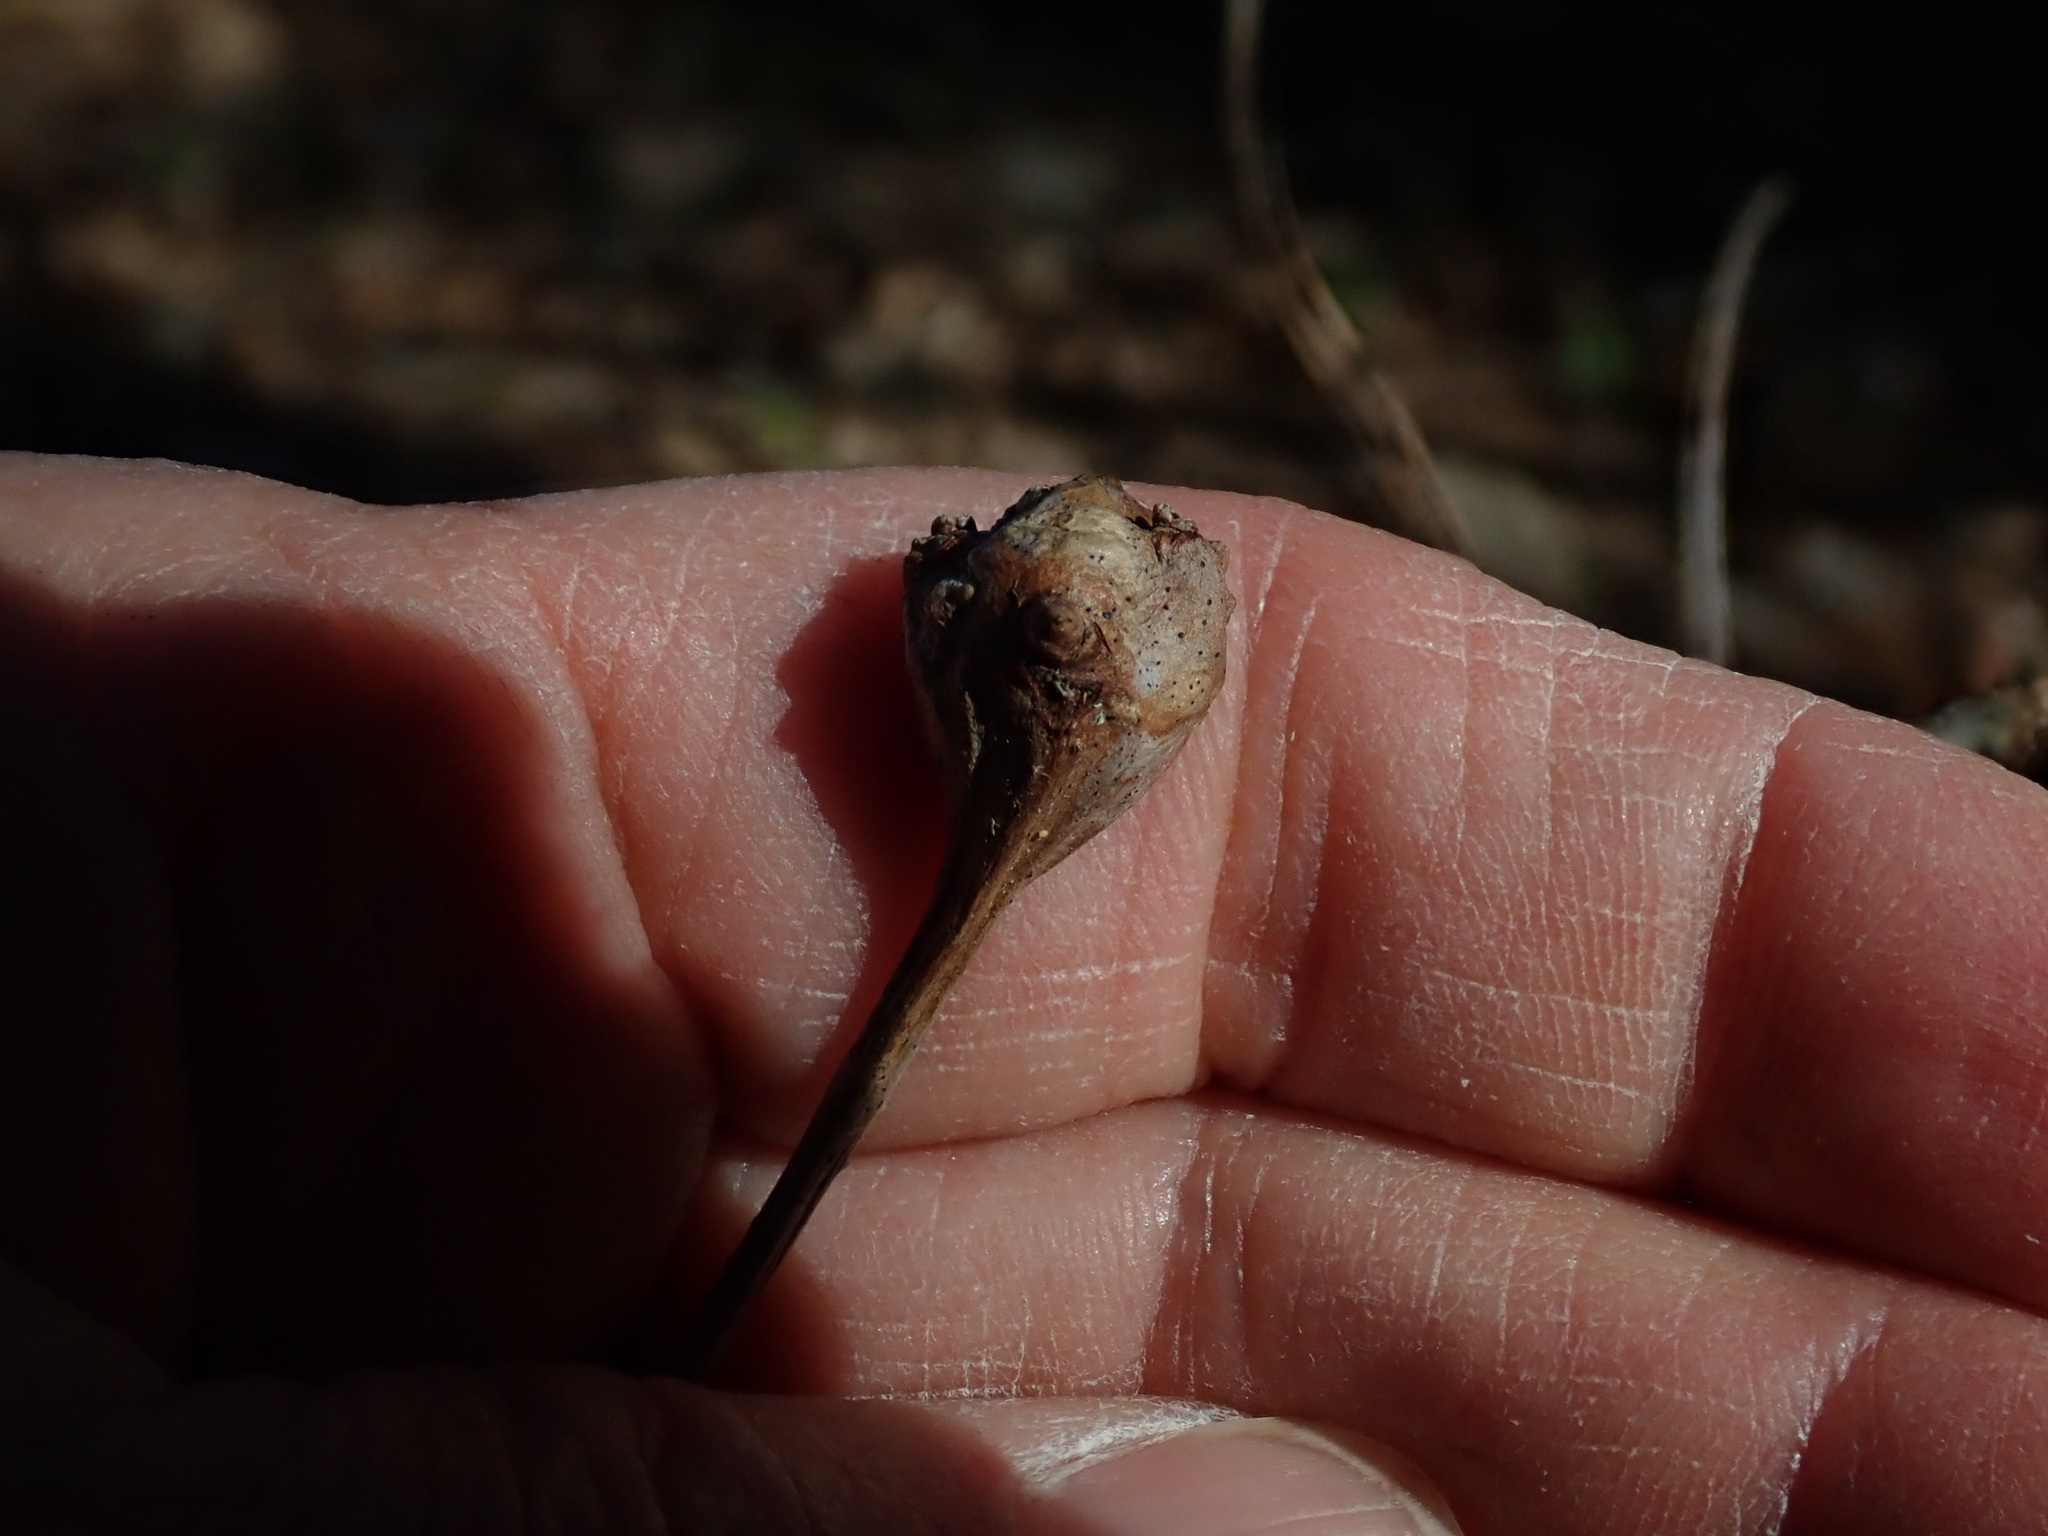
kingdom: Animalia
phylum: Arthropoda
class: Insecta
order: Hymenoptera
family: Cynipidae
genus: Callirhytis
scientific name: Callirhytis clavula
